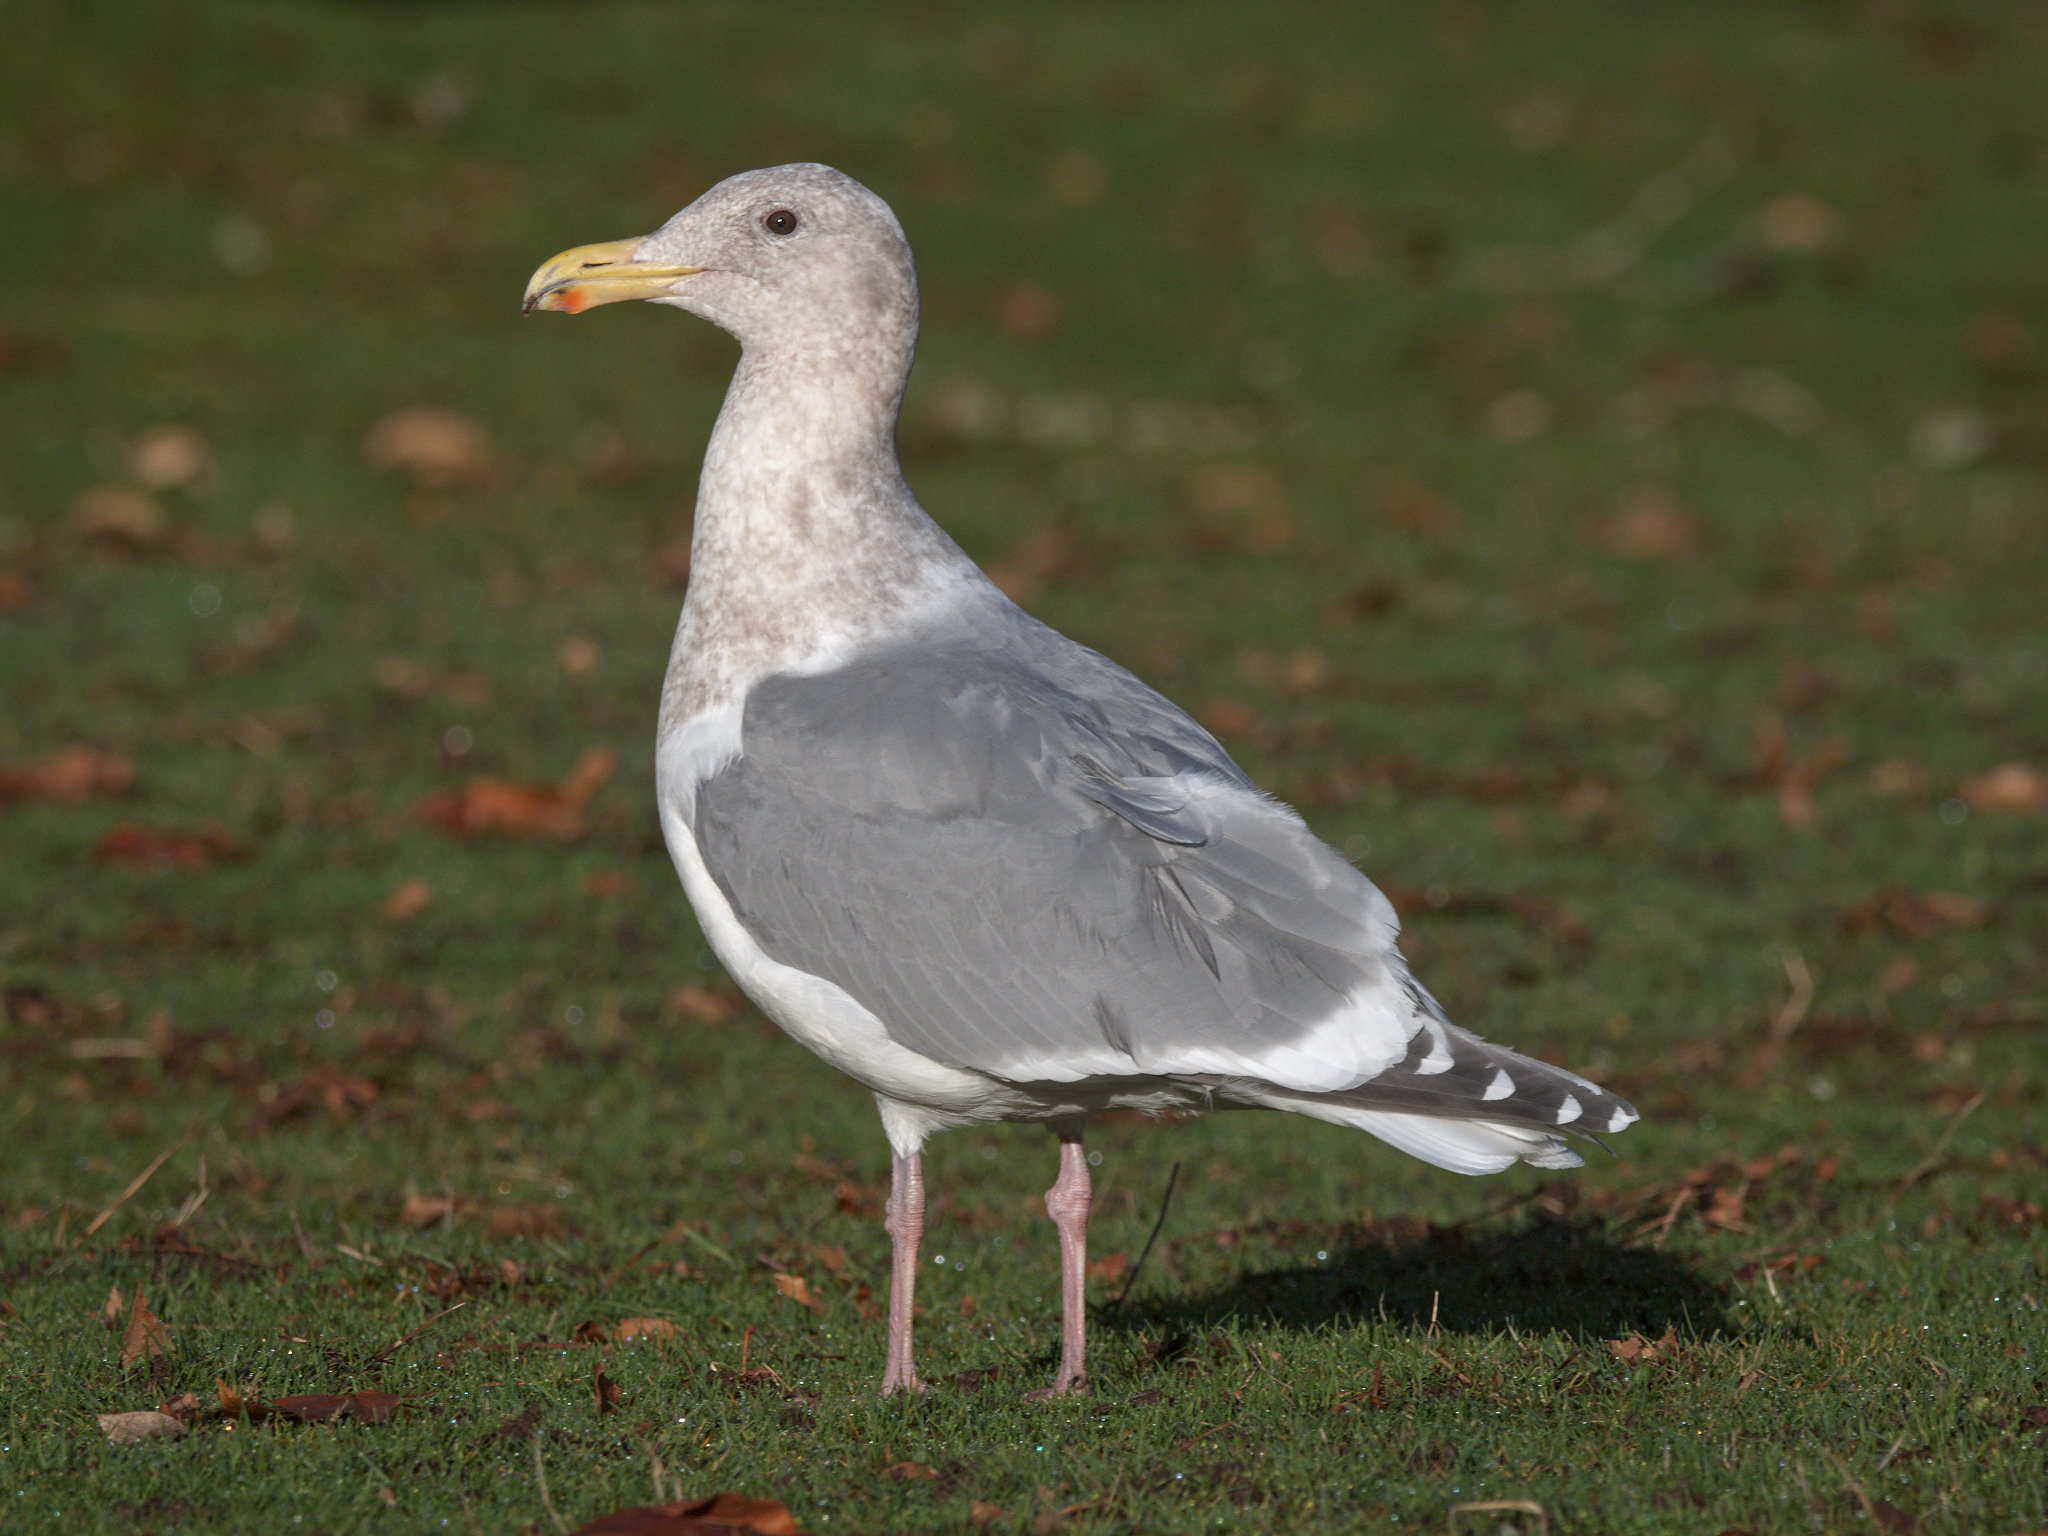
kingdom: Animalia
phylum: Chordata
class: Aves
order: Charadriiformes
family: Laridae
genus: Larus
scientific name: Larus
